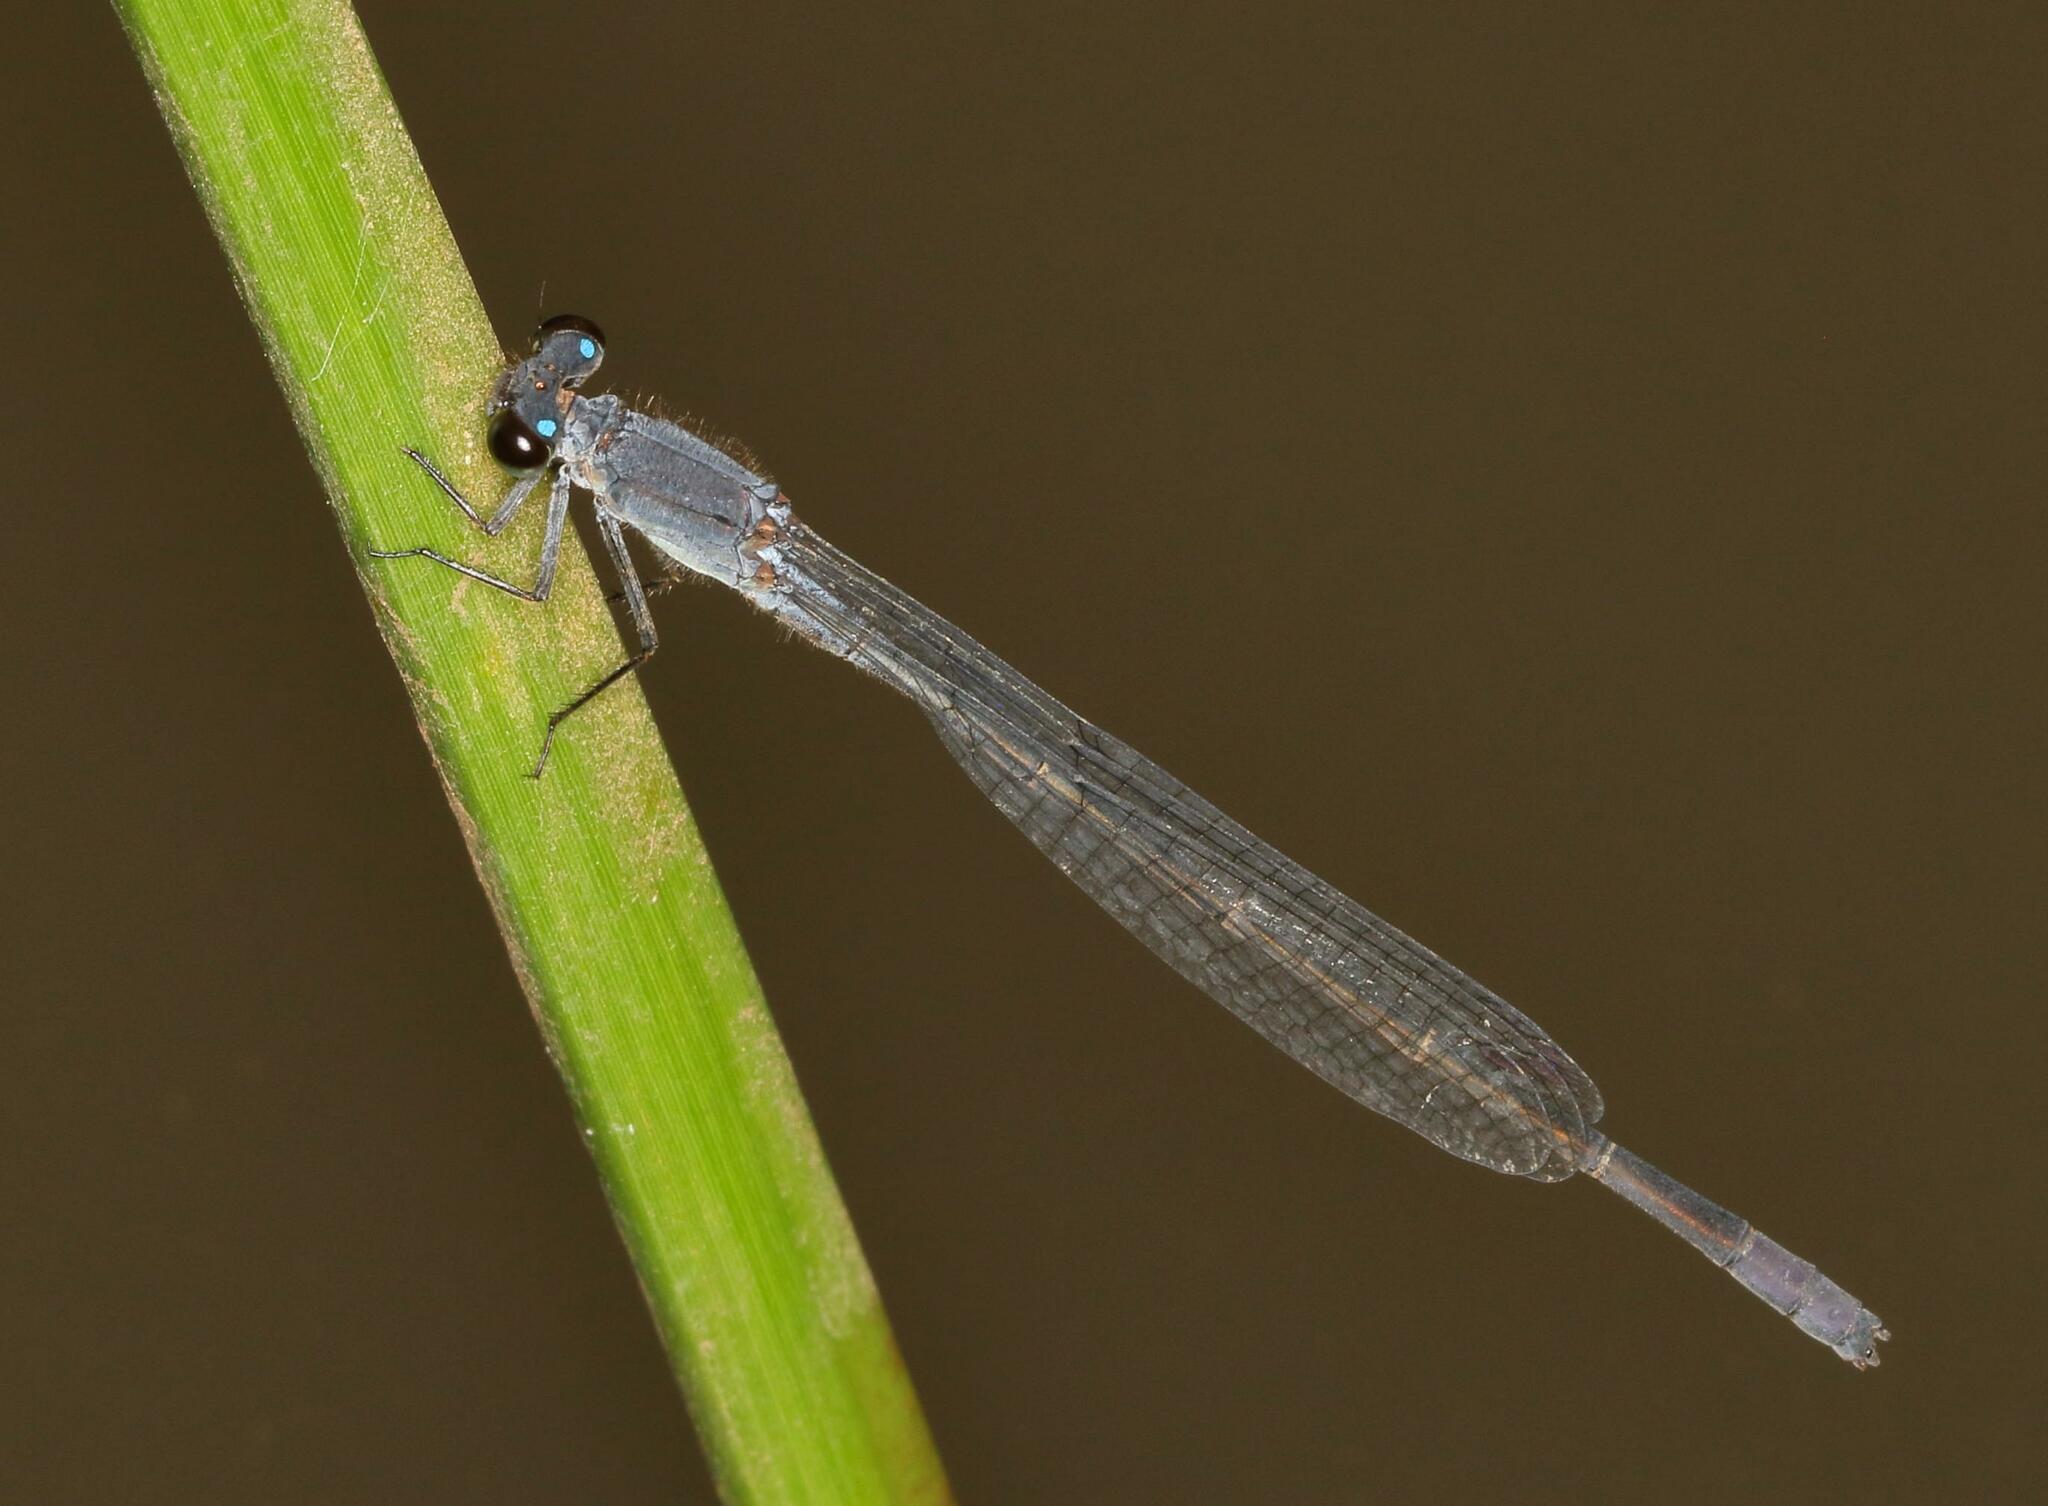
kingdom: Animalia
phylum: Arthropoda
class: Insecta
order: Odonata
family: Coenagrionidae
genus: Pseudagrion
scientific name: Pseudagrion salisburyense
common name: Slate sprite
